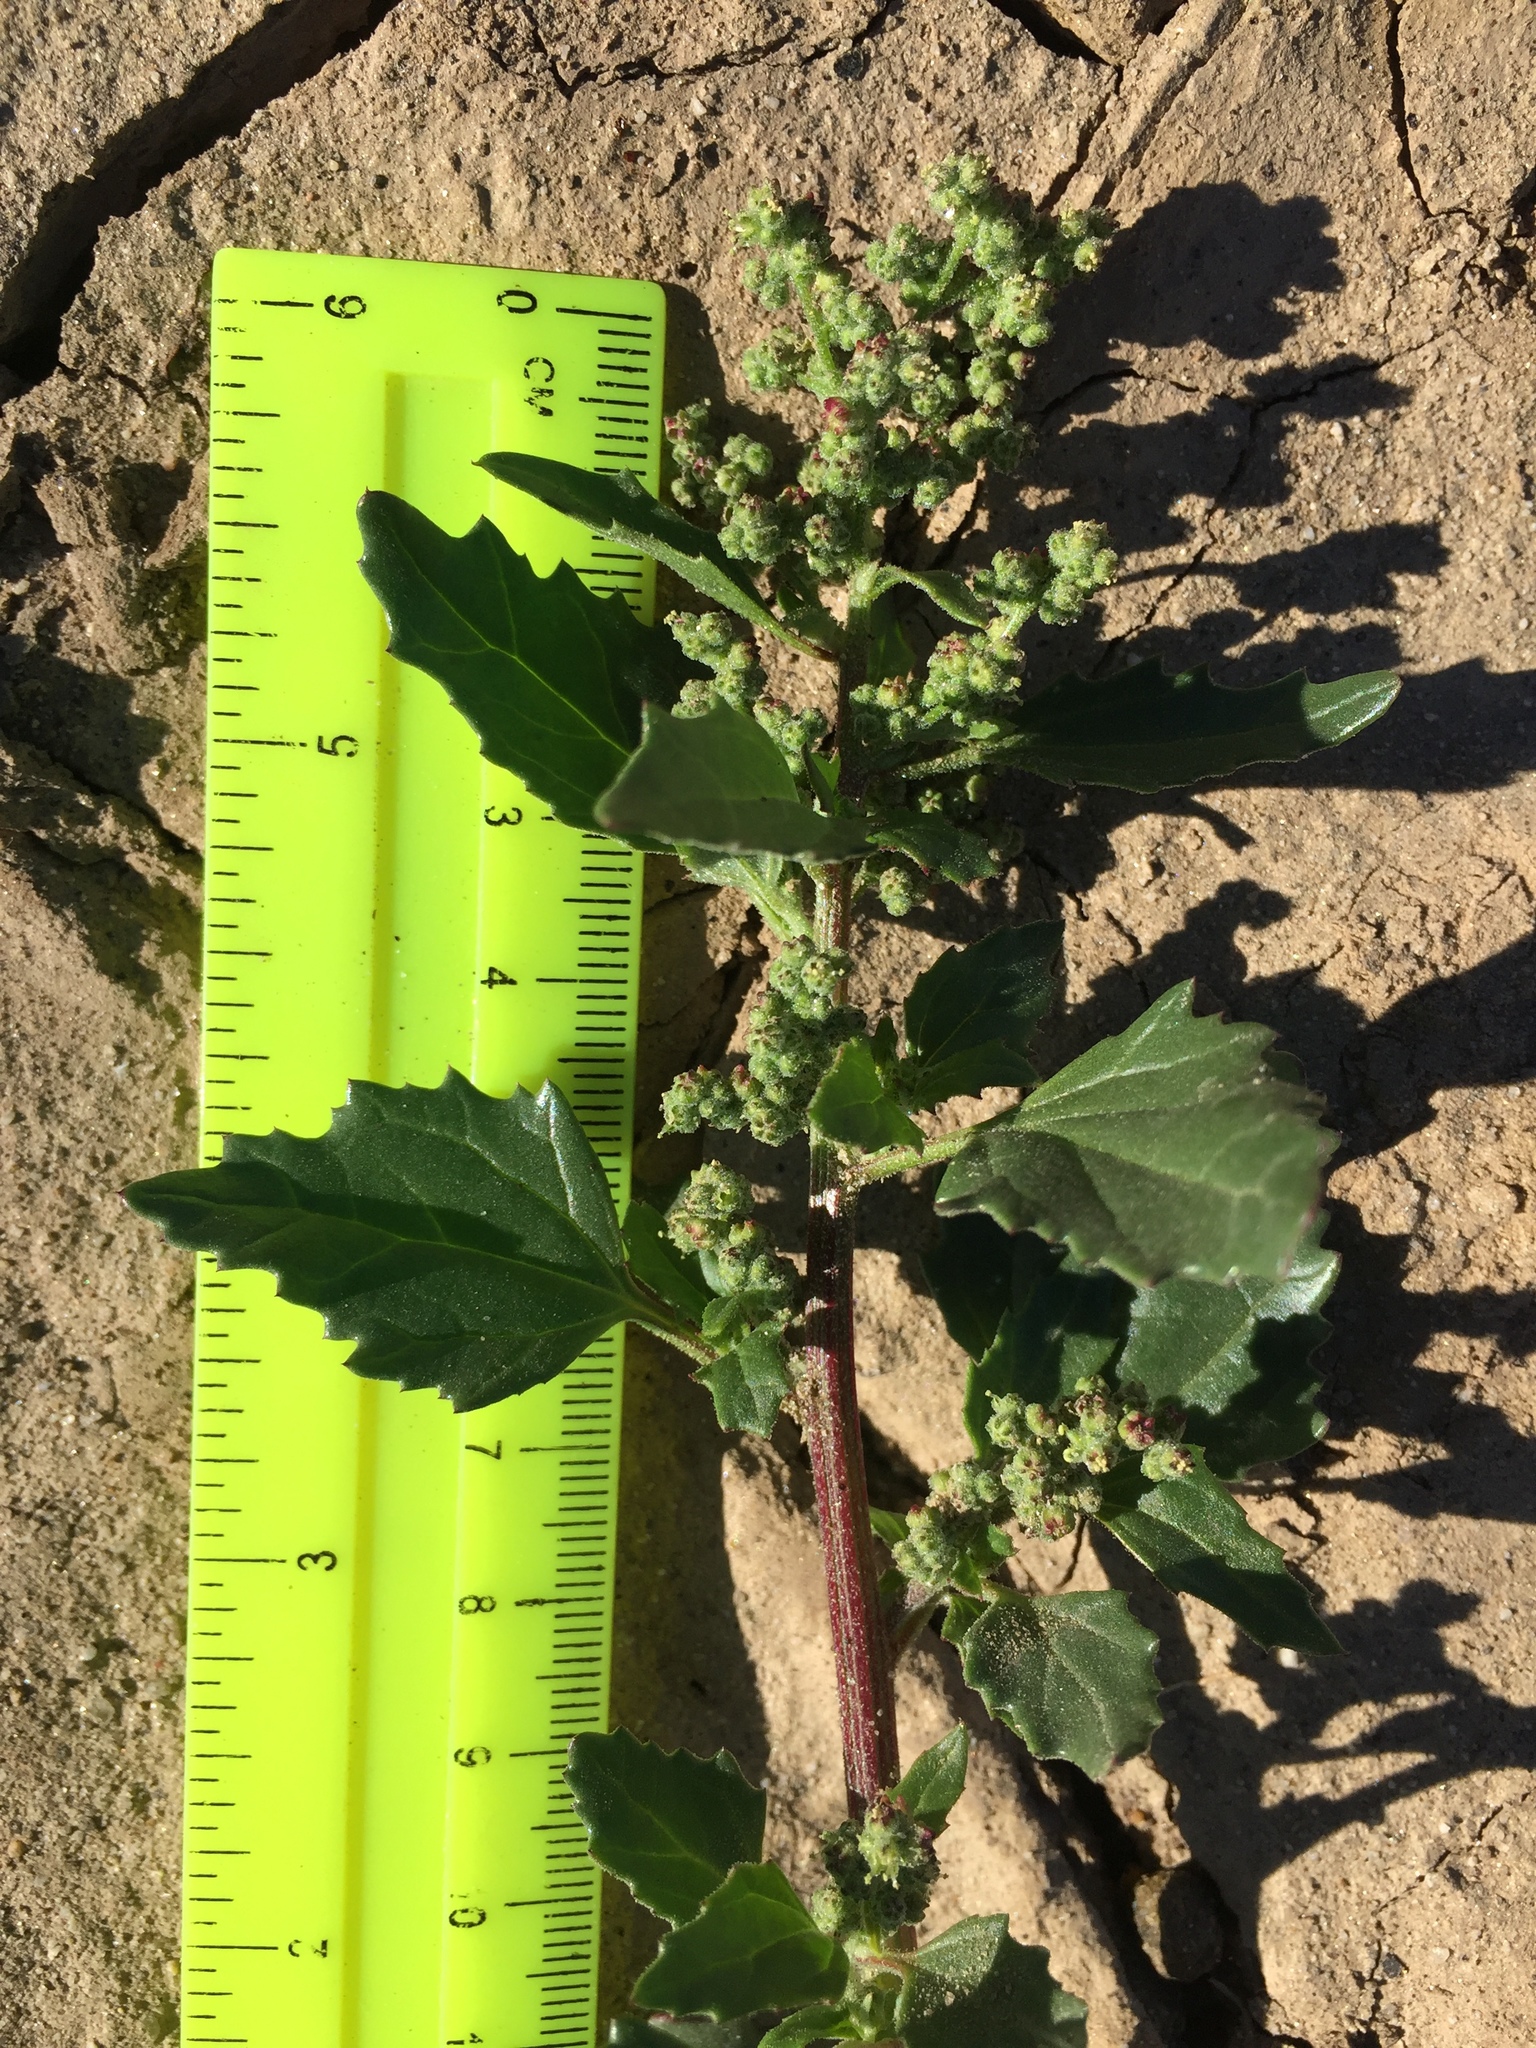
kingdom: Plantae
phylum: Tracheophyta
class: Magnoliopsida
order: Caryophyllales
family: Amaranthaceae
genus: Chenopodiastrum
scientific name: Chenopodiastrum murale
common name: Sowbane
